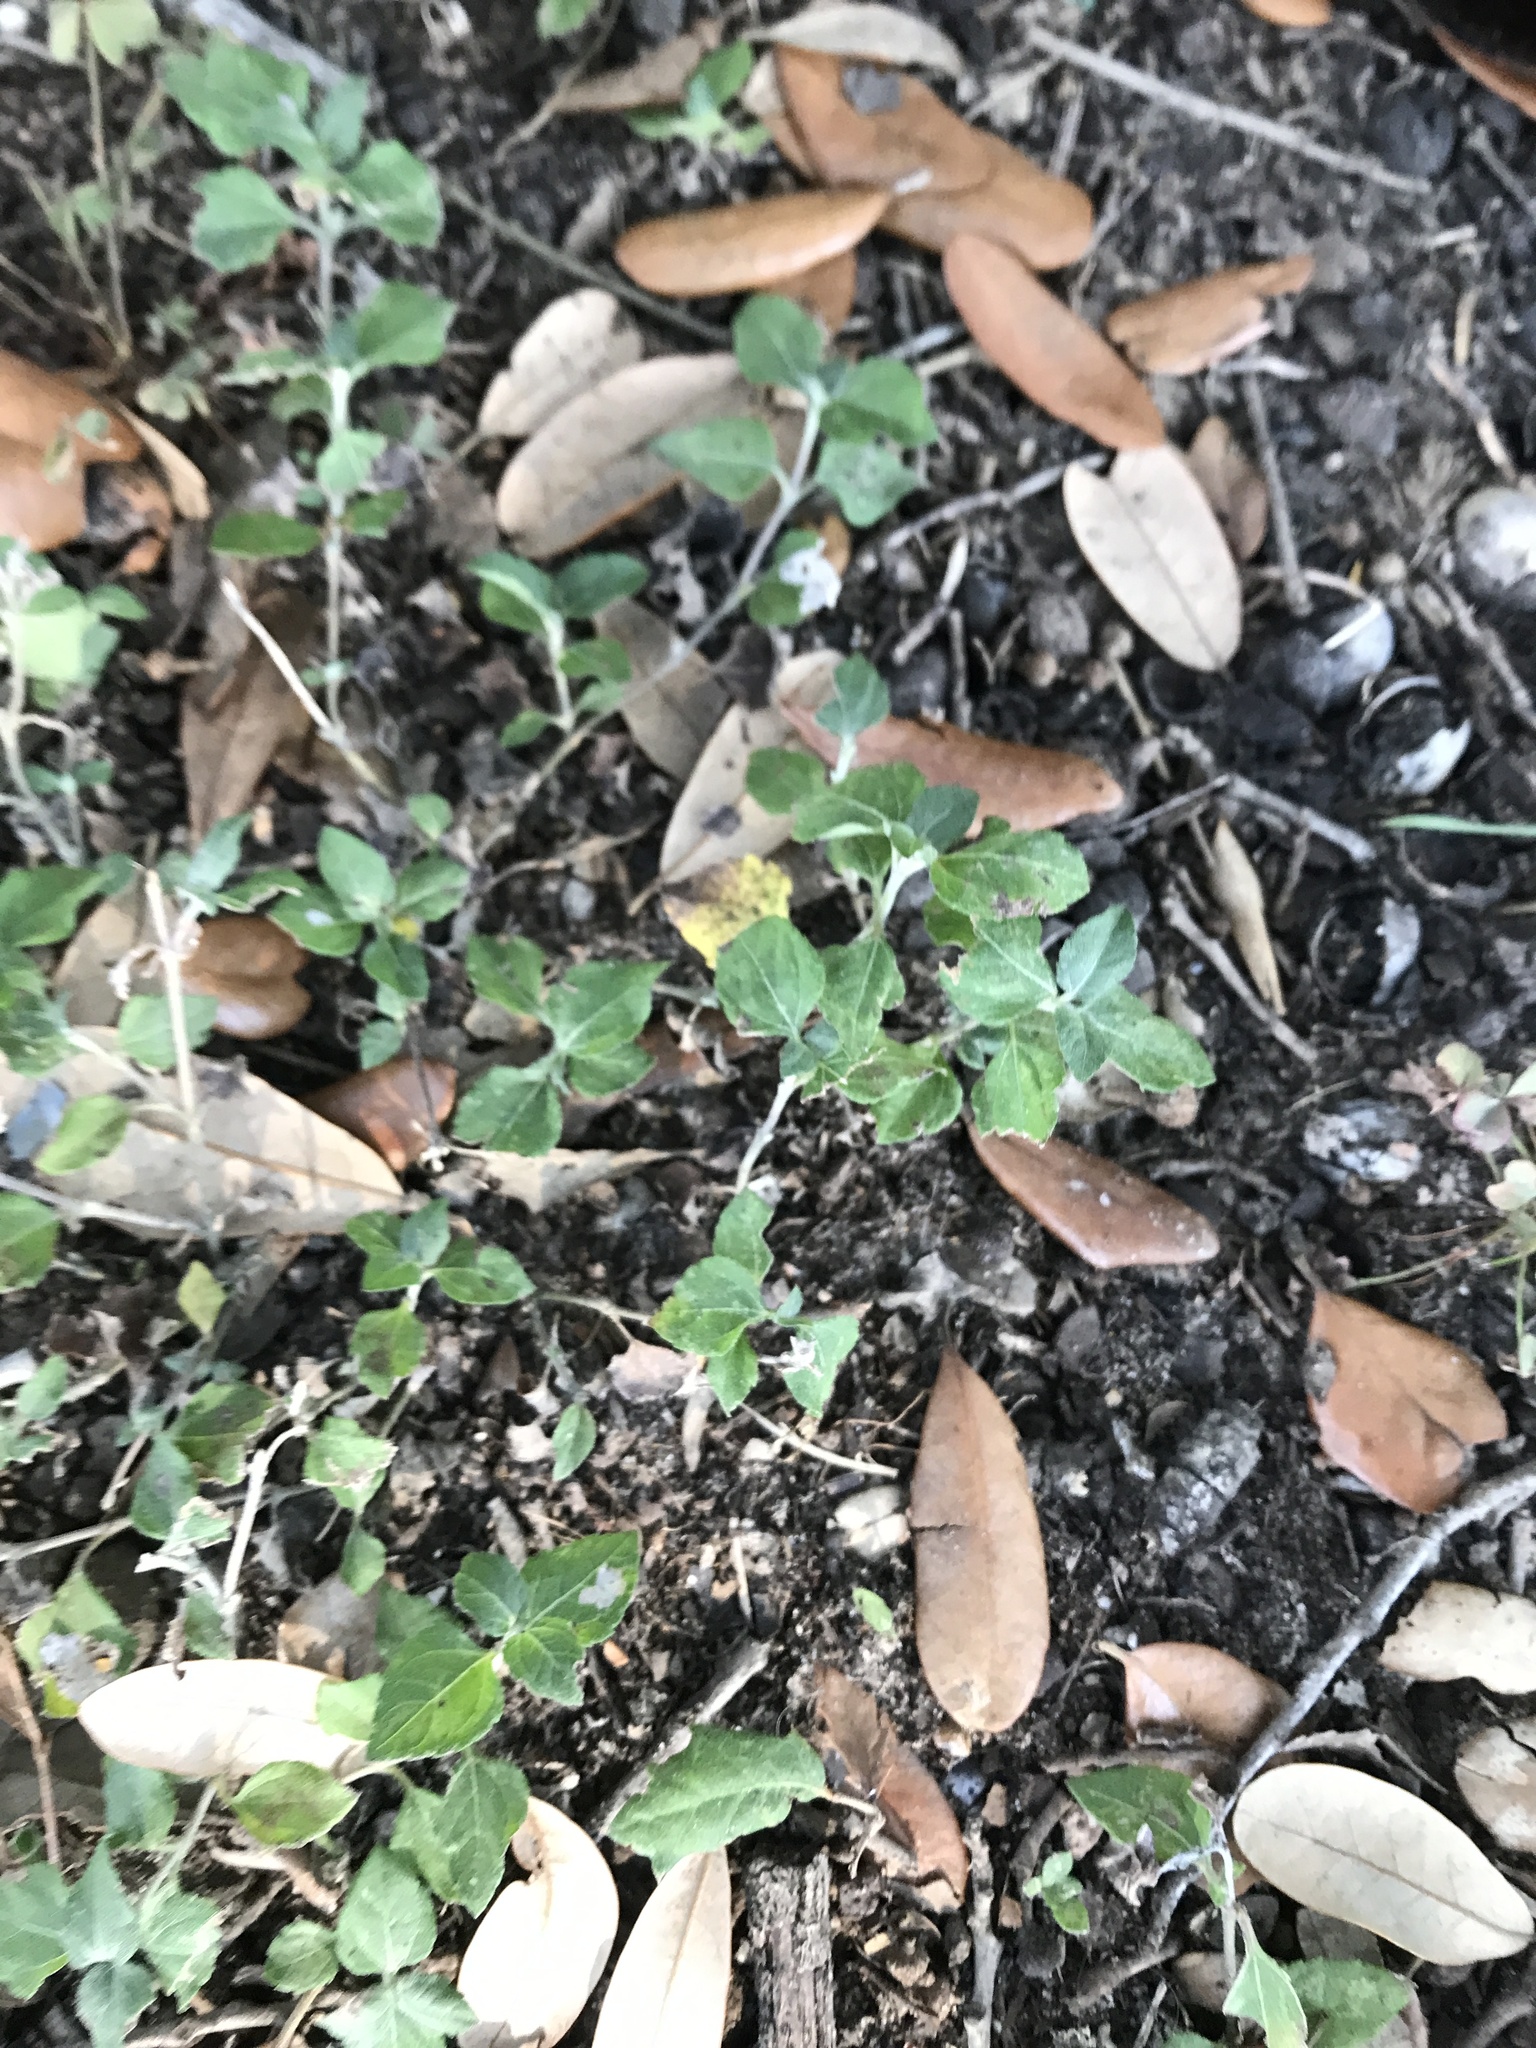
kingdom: Plantae
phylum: Tracheophyta
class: Magnoliopsida
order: Asterales
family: Asteraceae
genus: Calyptocarpus
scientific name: Calyptocarpus vialis
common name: Straggler daisy
